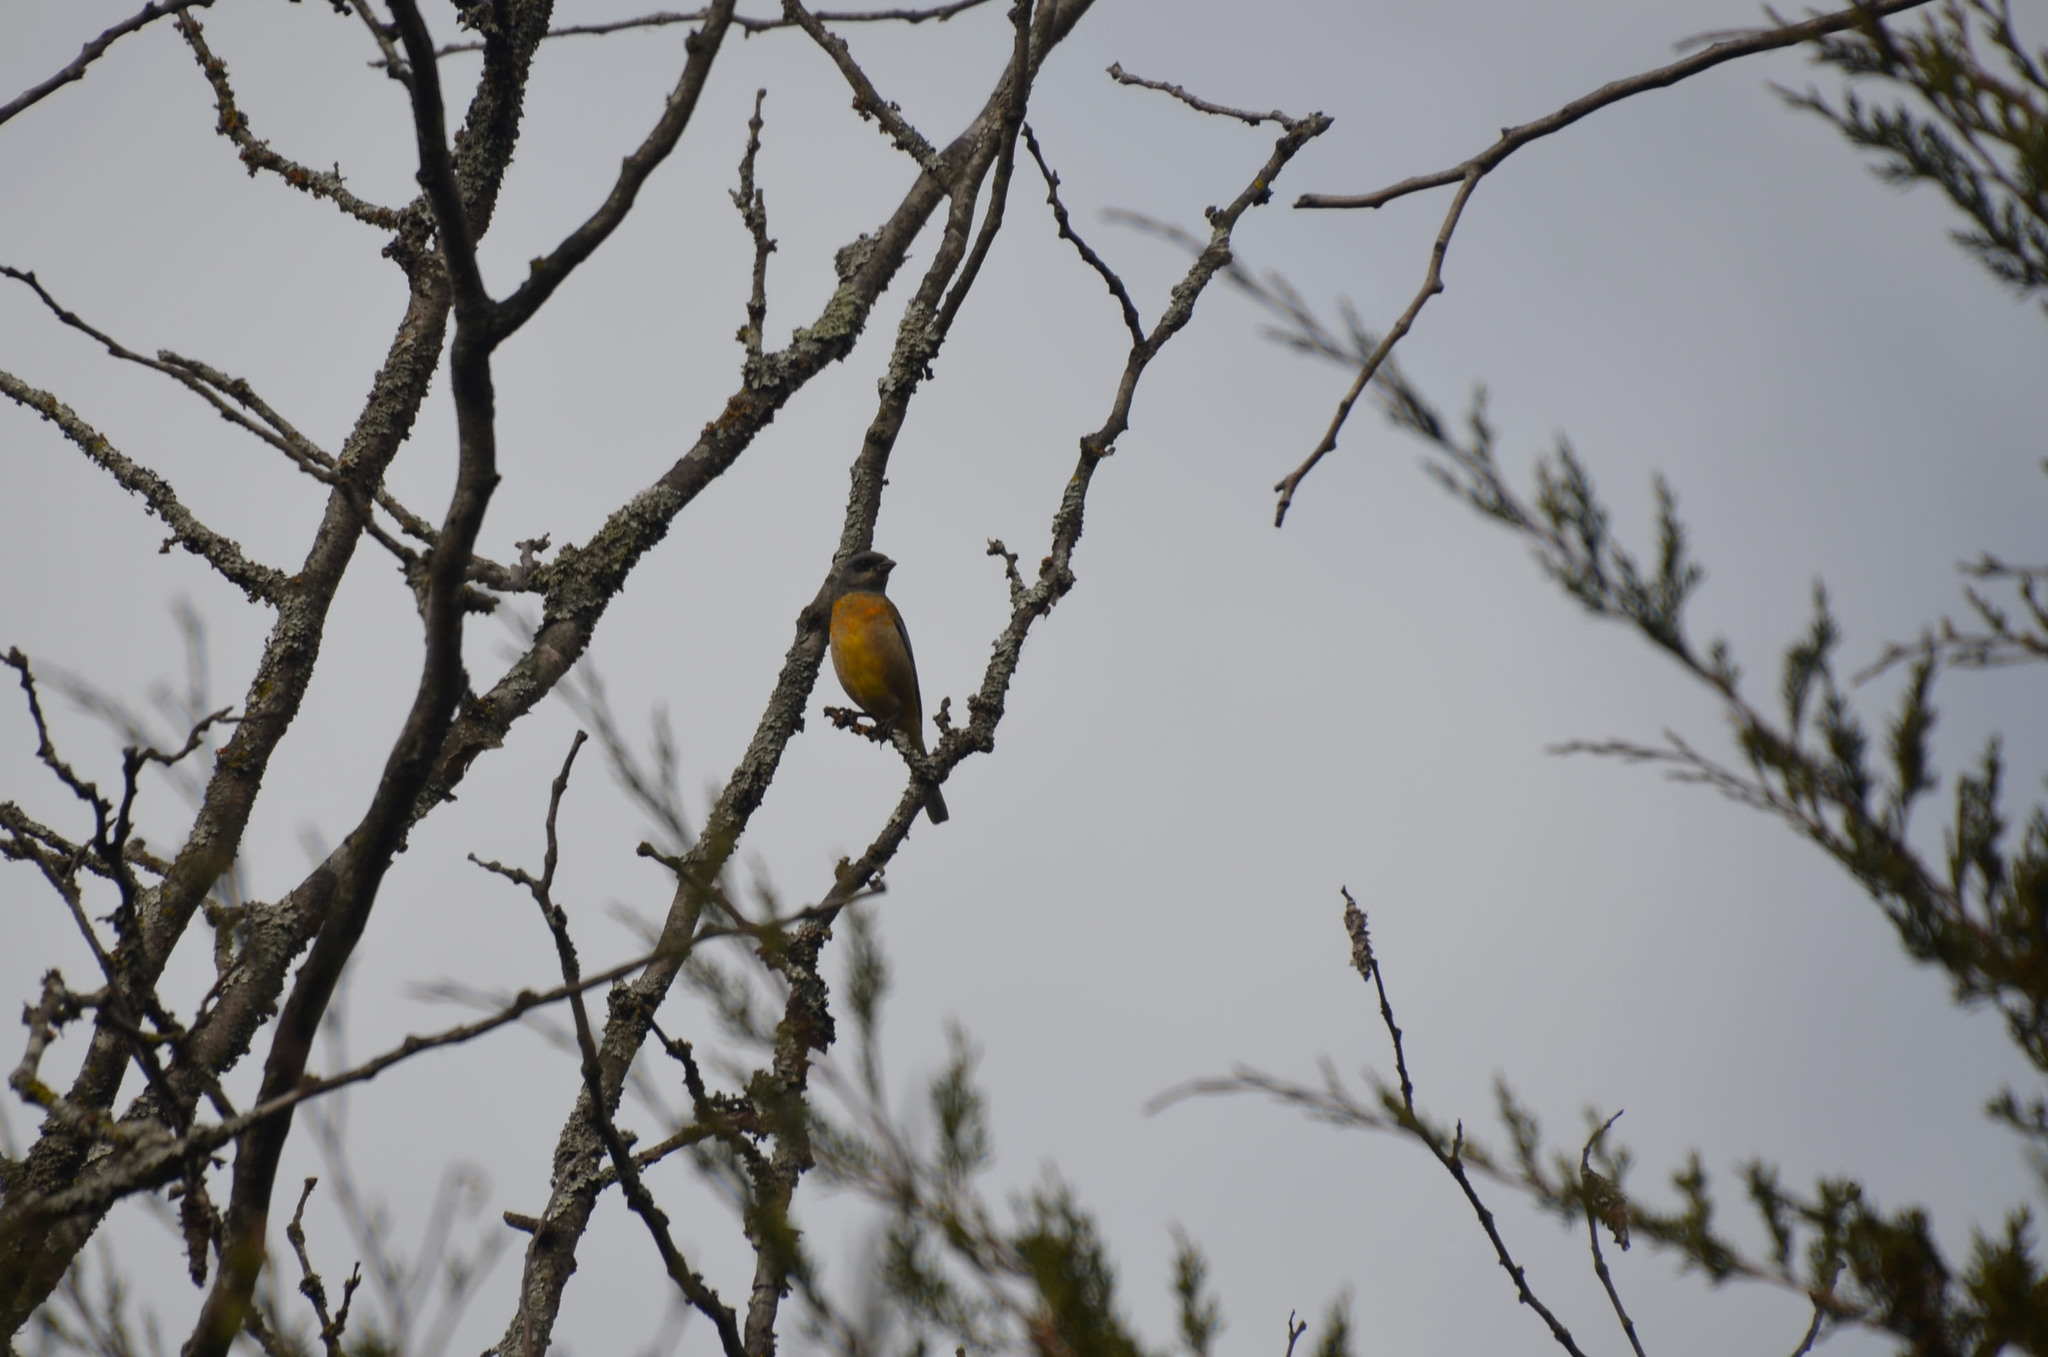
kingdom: Animalia
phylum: Chordata
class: Aves
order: Passeriformes
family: Thraupidae
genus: Rauenia
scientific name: Rauenia bonariensis
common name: Blue-and-yellow tanager
